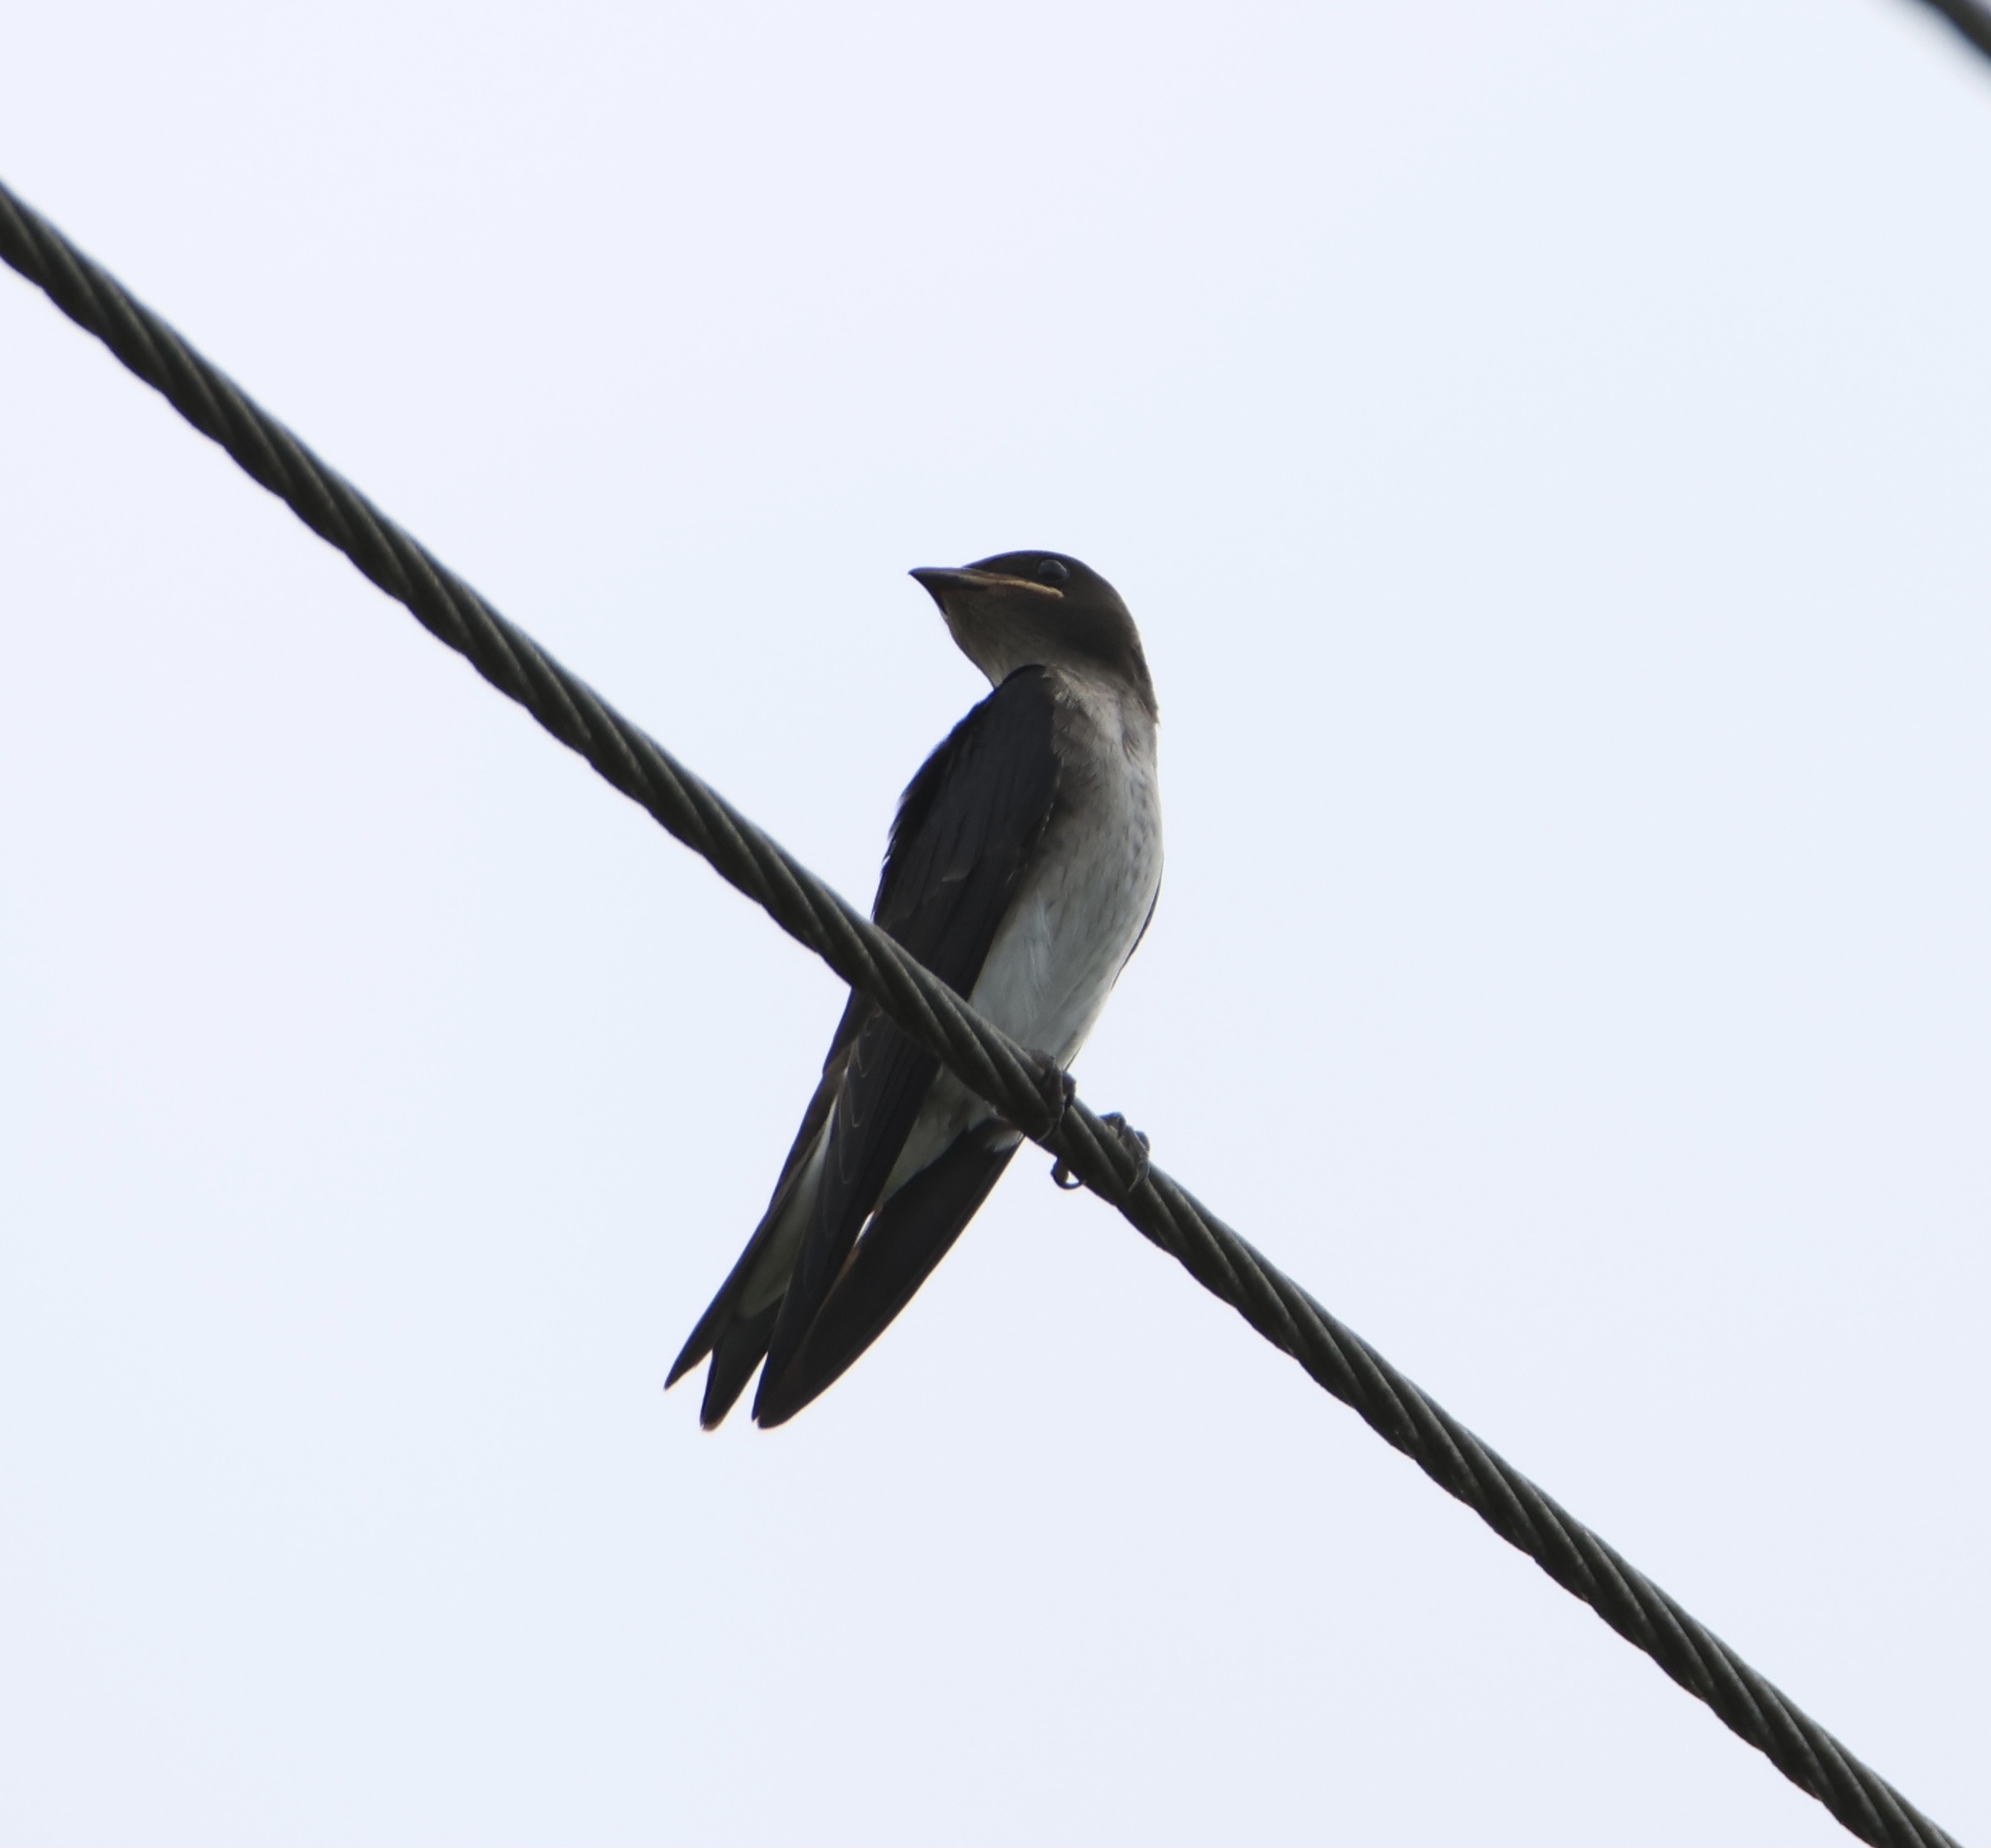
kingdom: Animalia
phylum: Chordata
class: Aves
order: Passeriformes
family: Hirundinidae
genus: Progne
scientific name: Progne chalybea
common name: Grey-breasted martin
